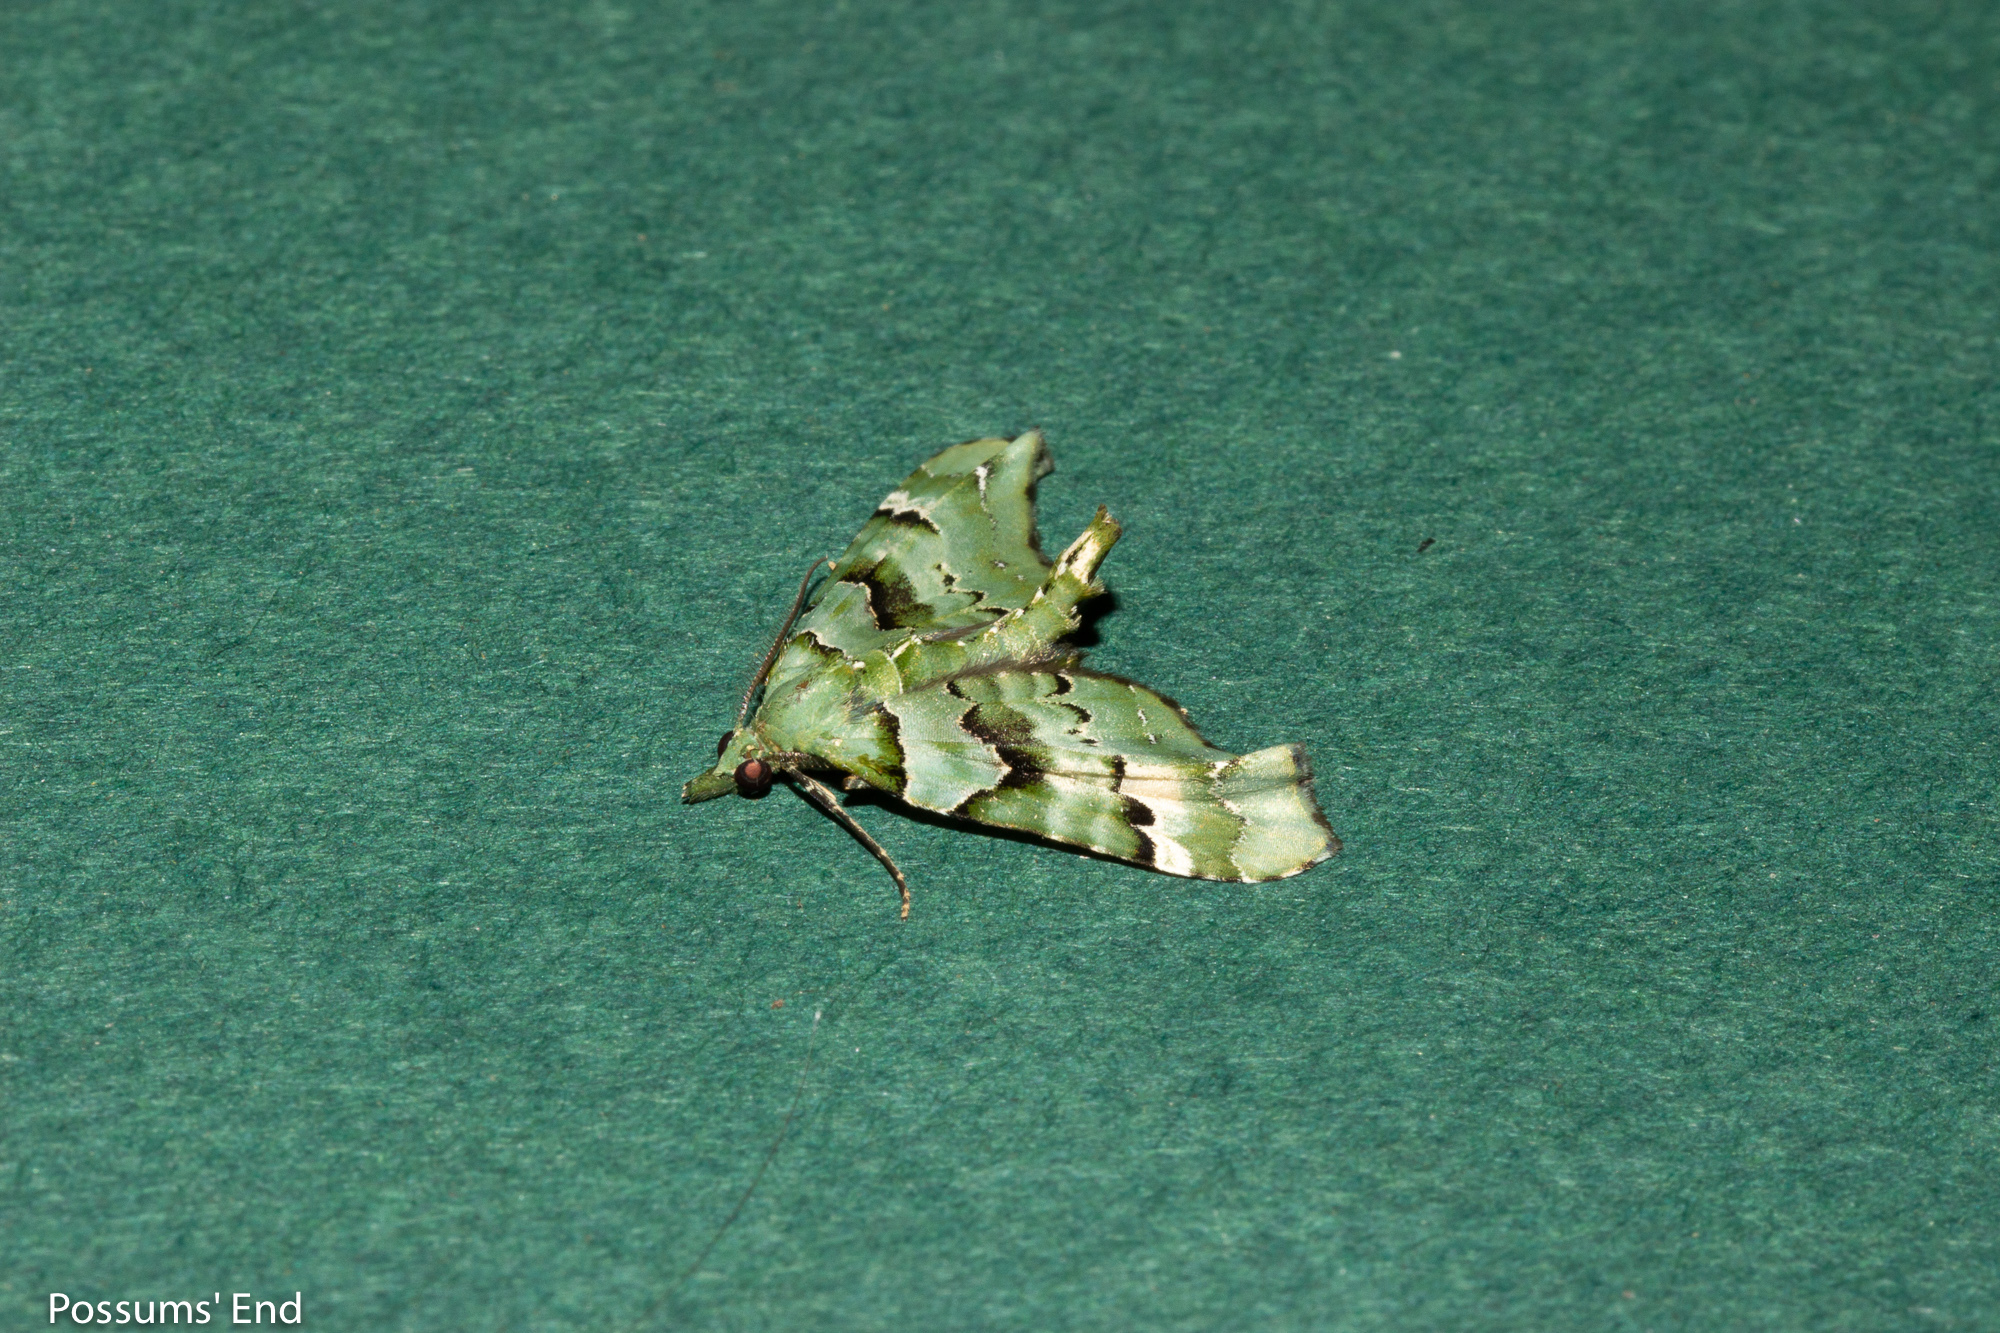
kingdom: Animalia
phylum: Arthropoda
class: Insecta
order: Lepidoptera
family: Geometridae
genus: Elvia
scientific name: Elvia glaucata
